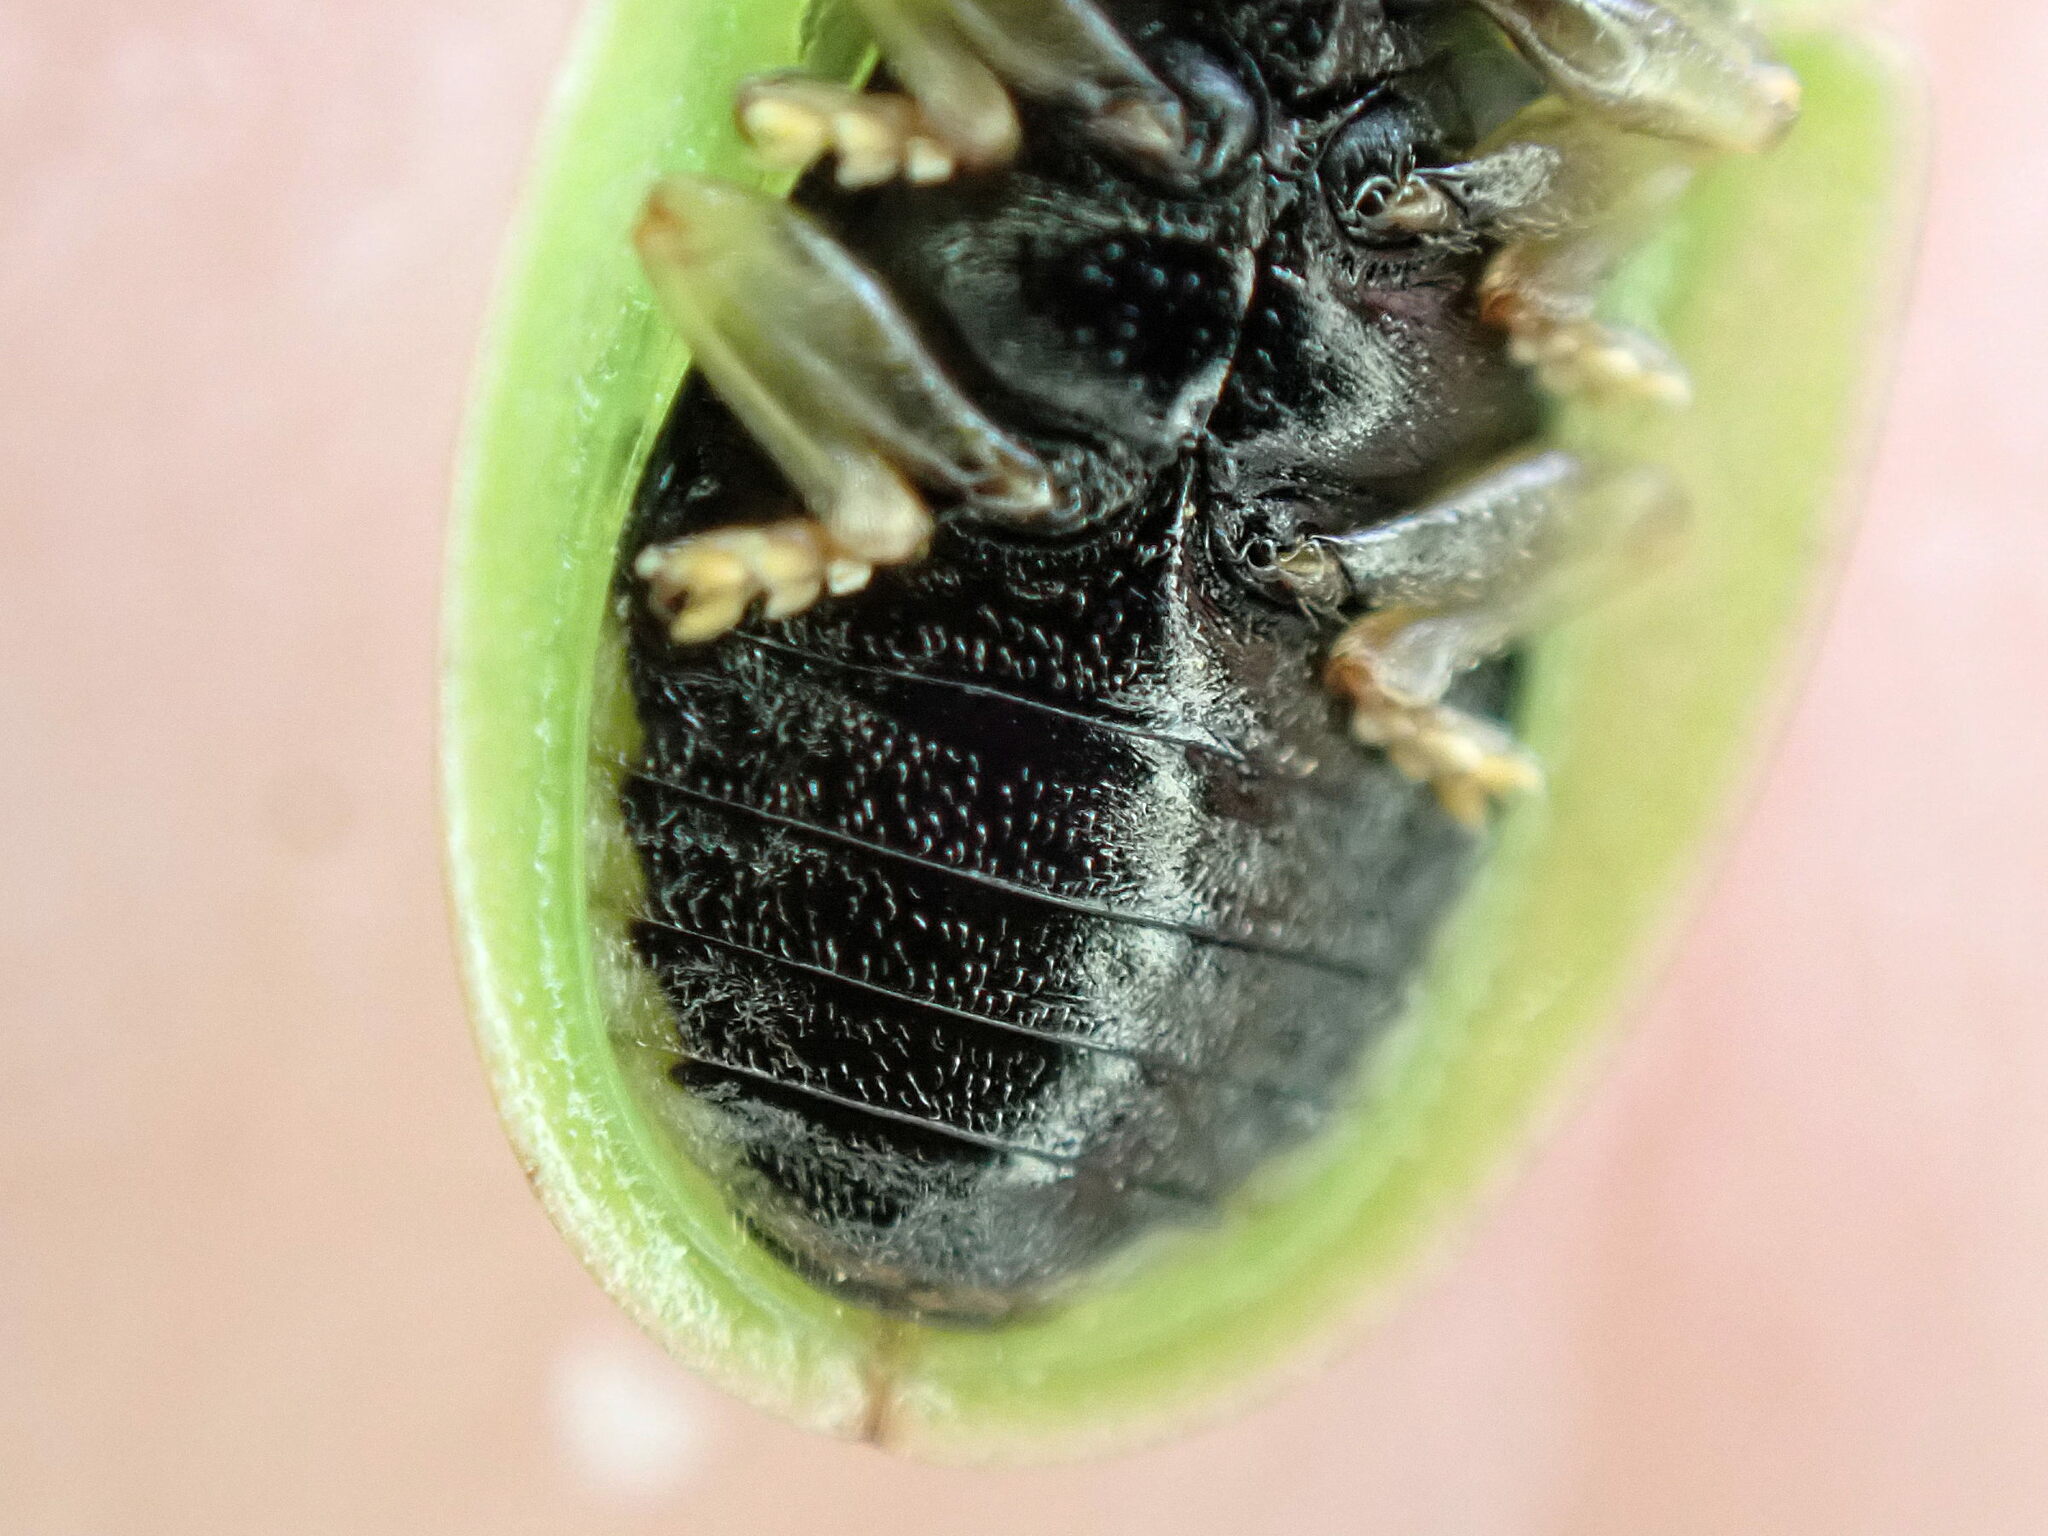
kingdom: Animalia
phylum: Arthropoda
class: Insecta
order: Coleoptera
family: Chrysomelidae
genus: Cassida
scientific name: Cassida sanguinosa
